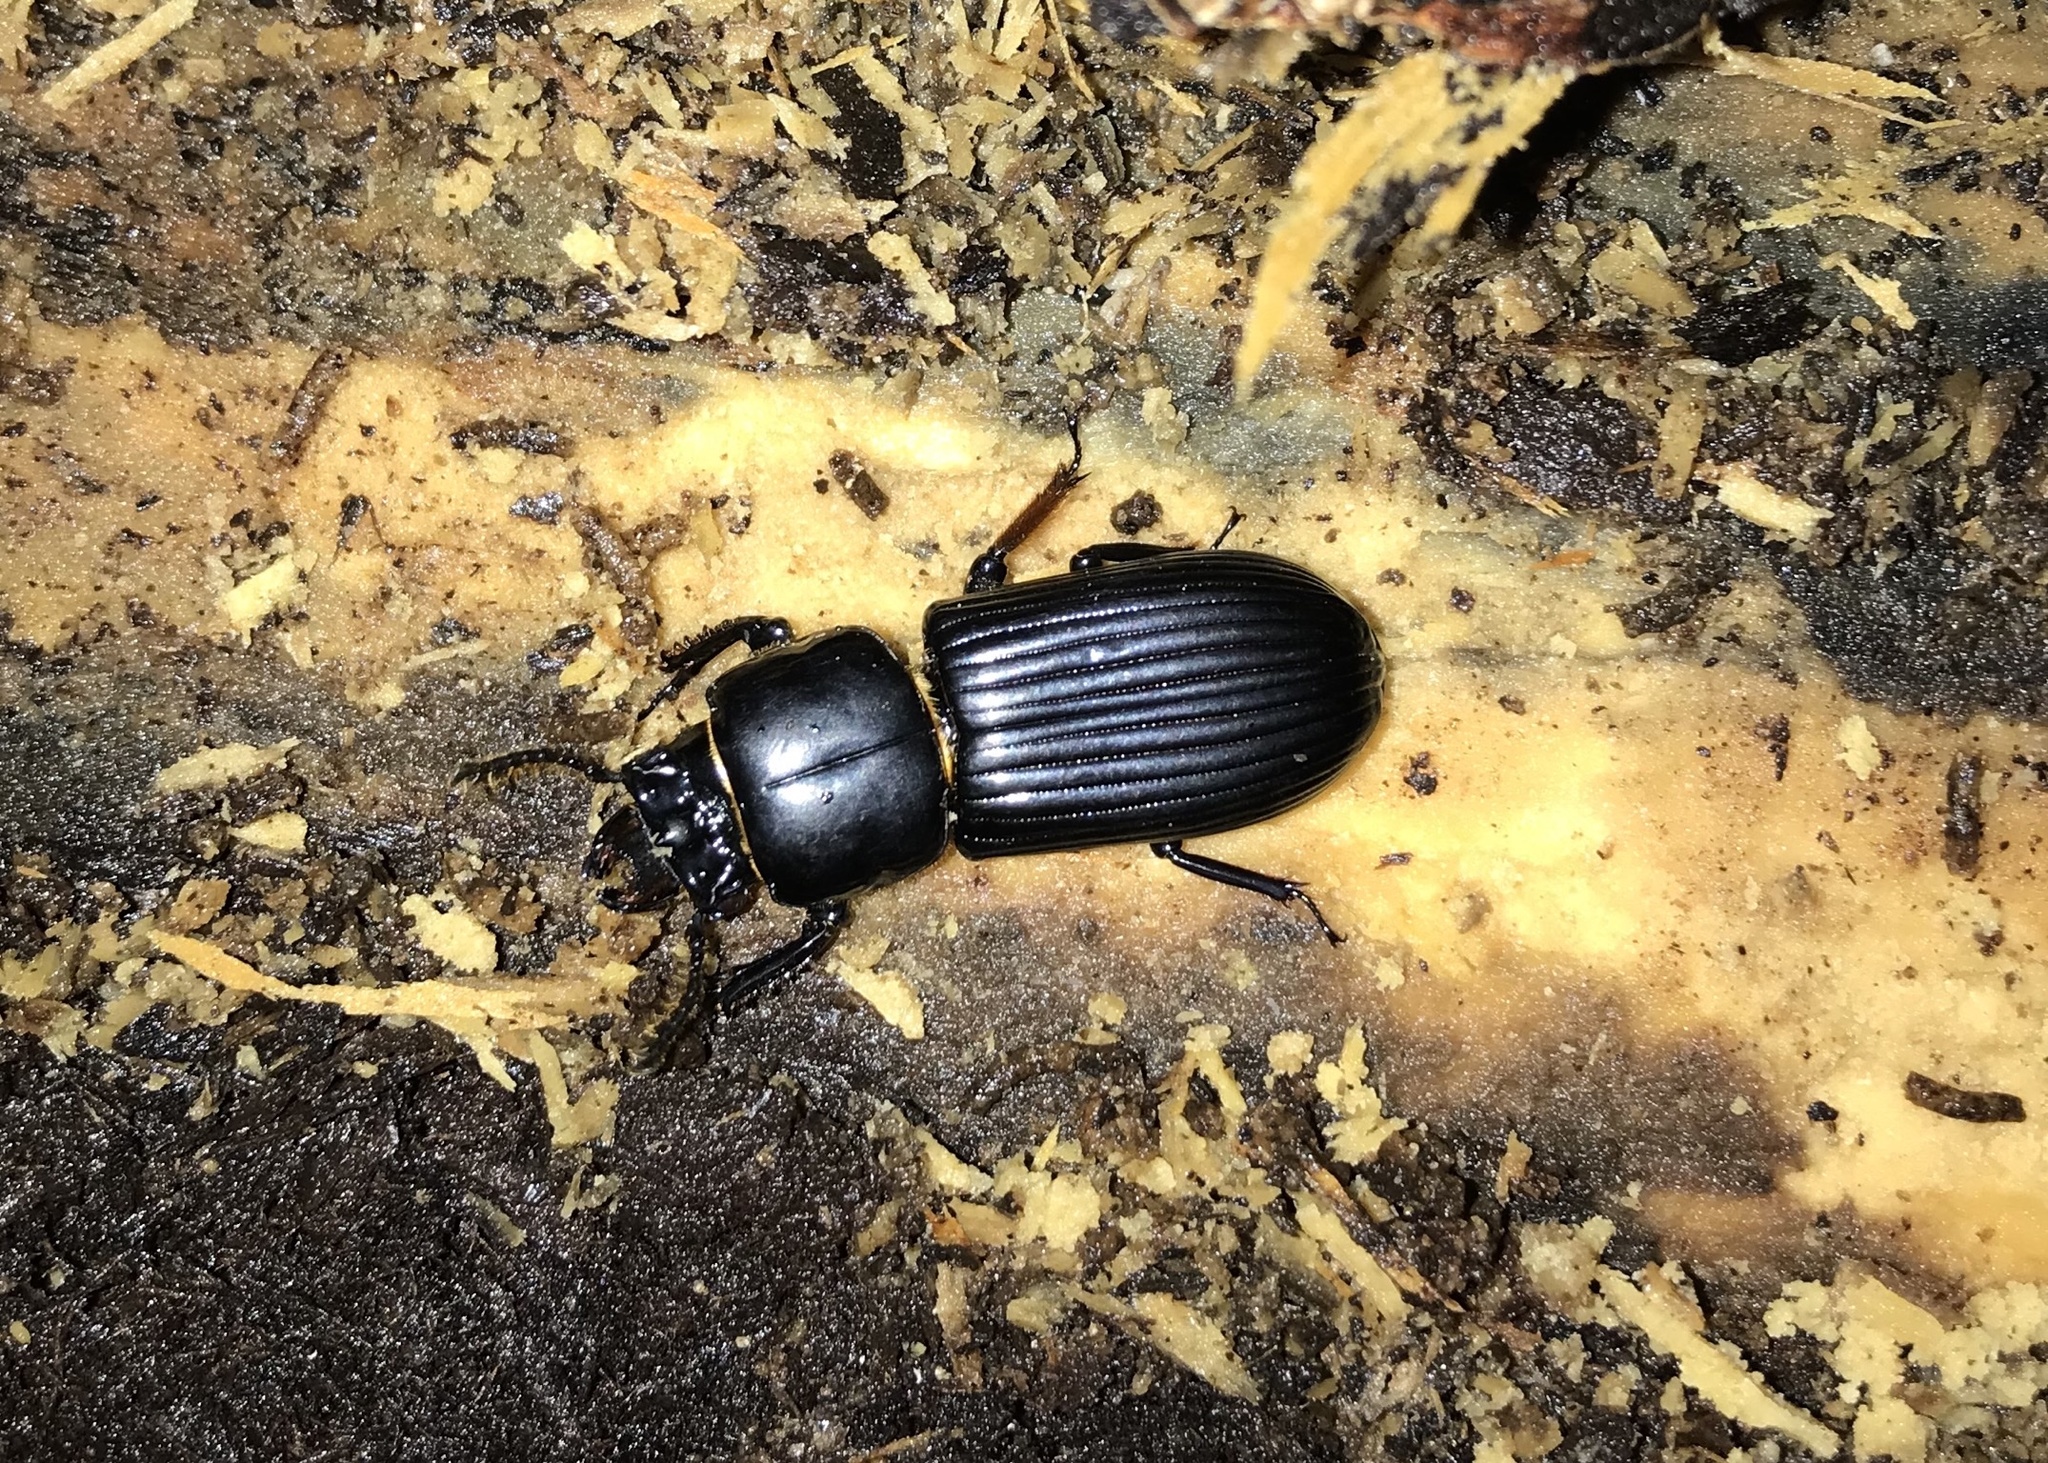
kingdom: Animalia
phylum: Arthropoda
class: Insecta
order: Coleoptera
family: Passalidae
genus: Odontotaenius
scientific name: Odontotaenius disjunctus
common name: Patent leather beetle
